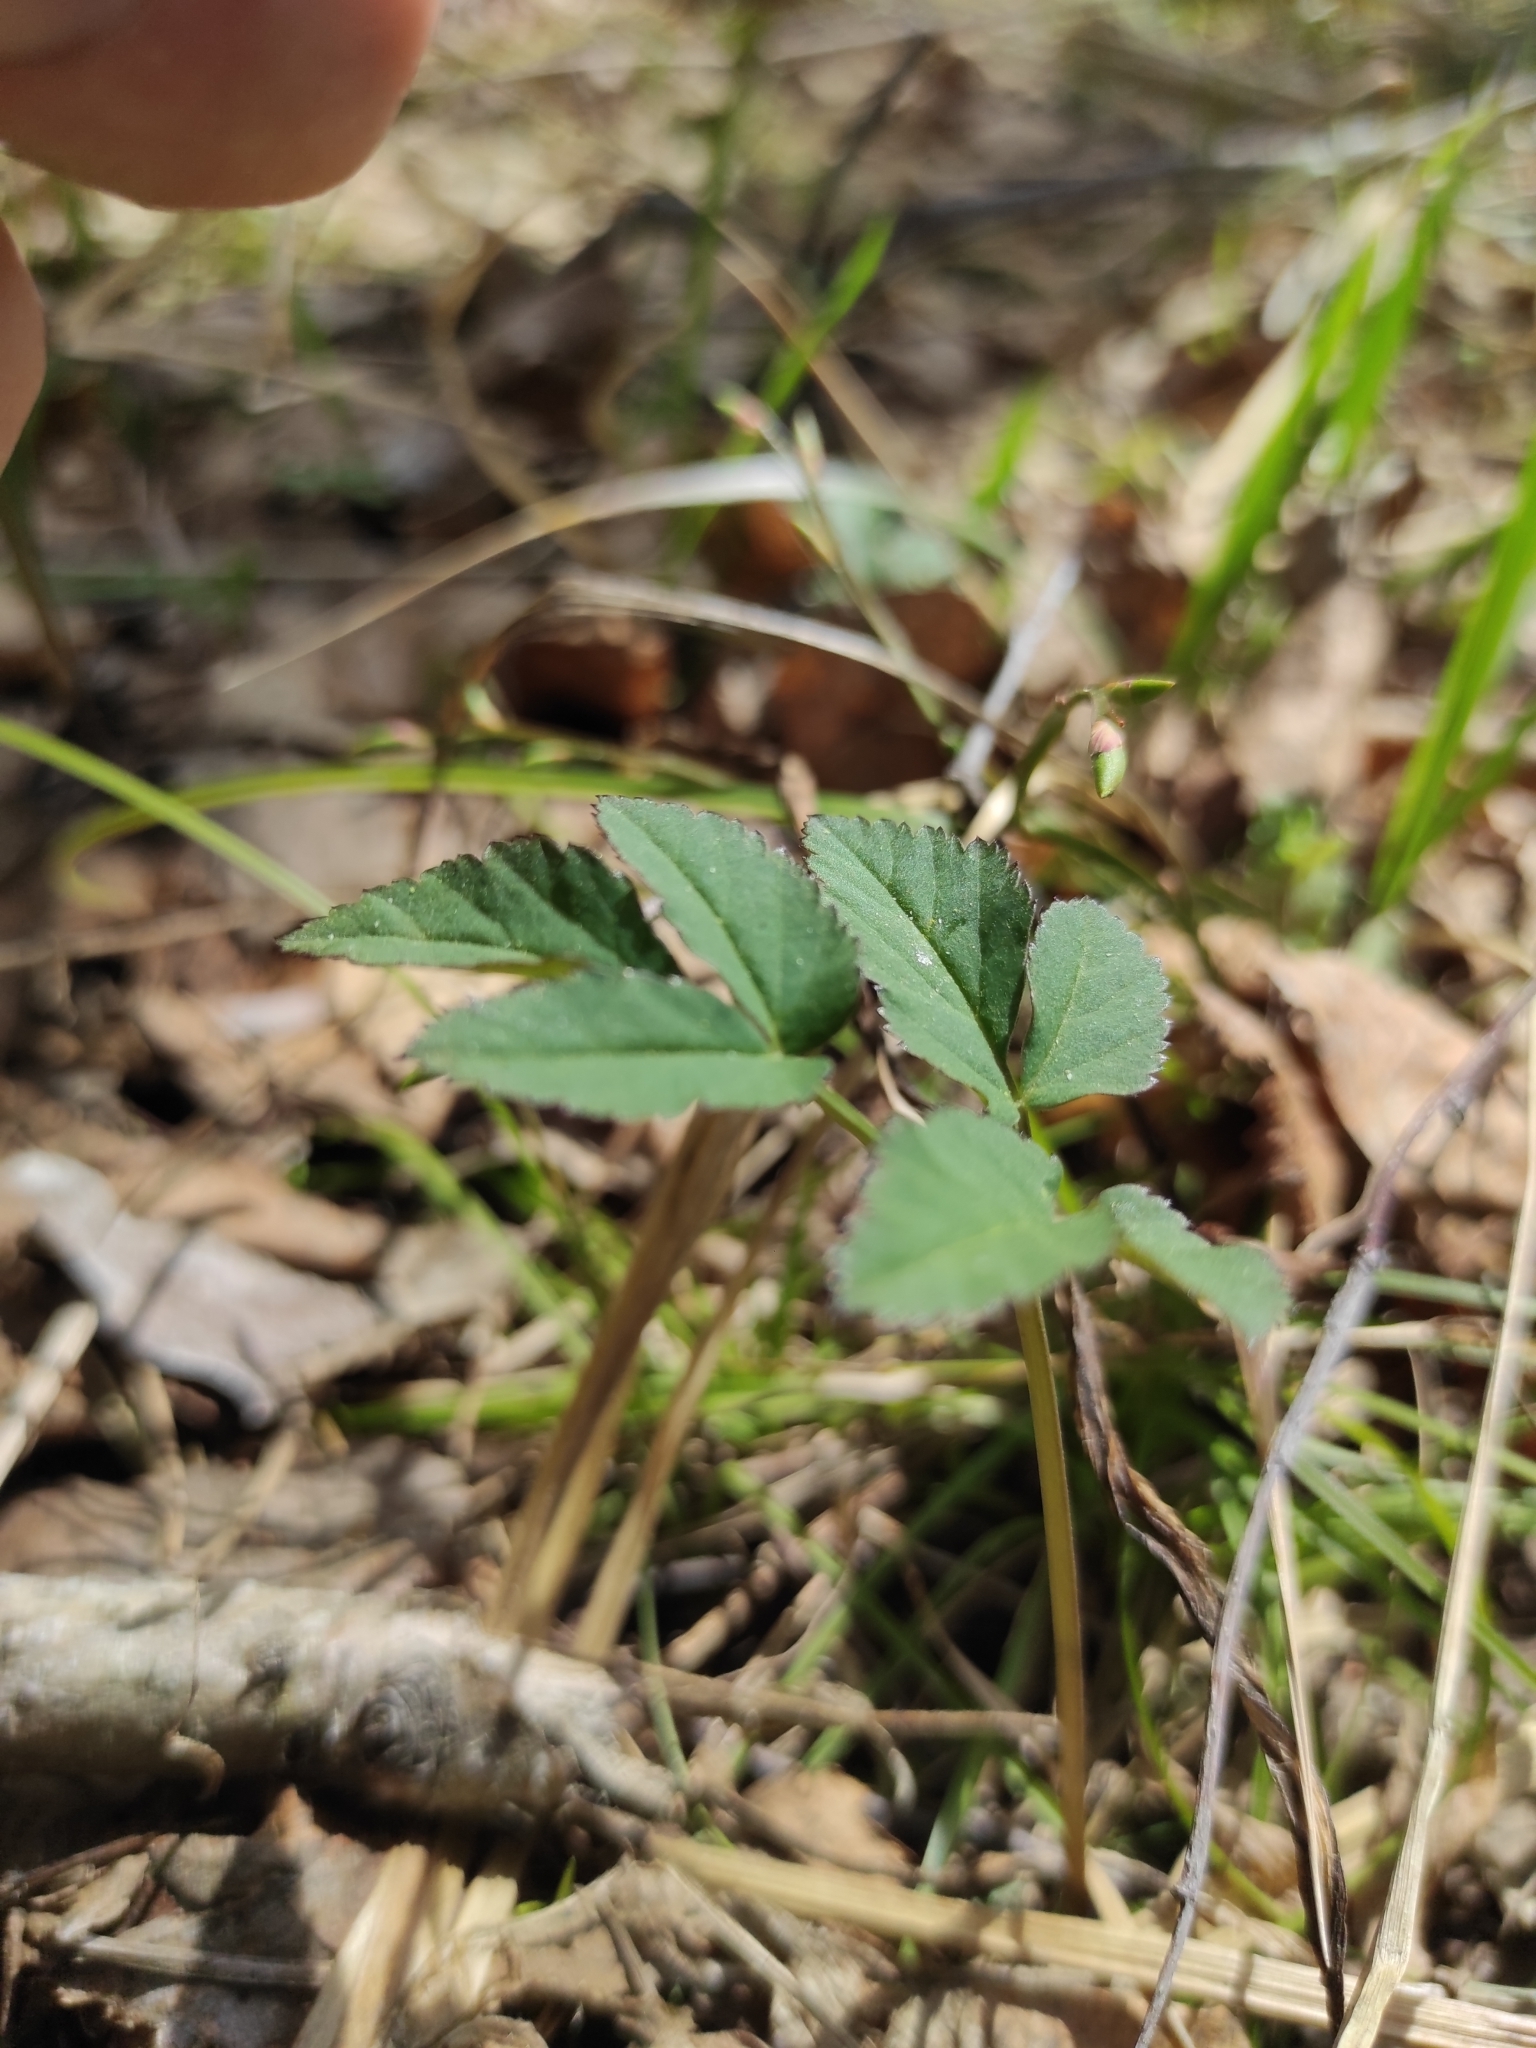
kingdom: Plantae
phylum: Tracheophyta
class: Magnoliopsida
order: Apiales
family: Apiaceae
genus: Aegopodium
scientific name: Aegopodium podagraria
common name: Ground-elder
